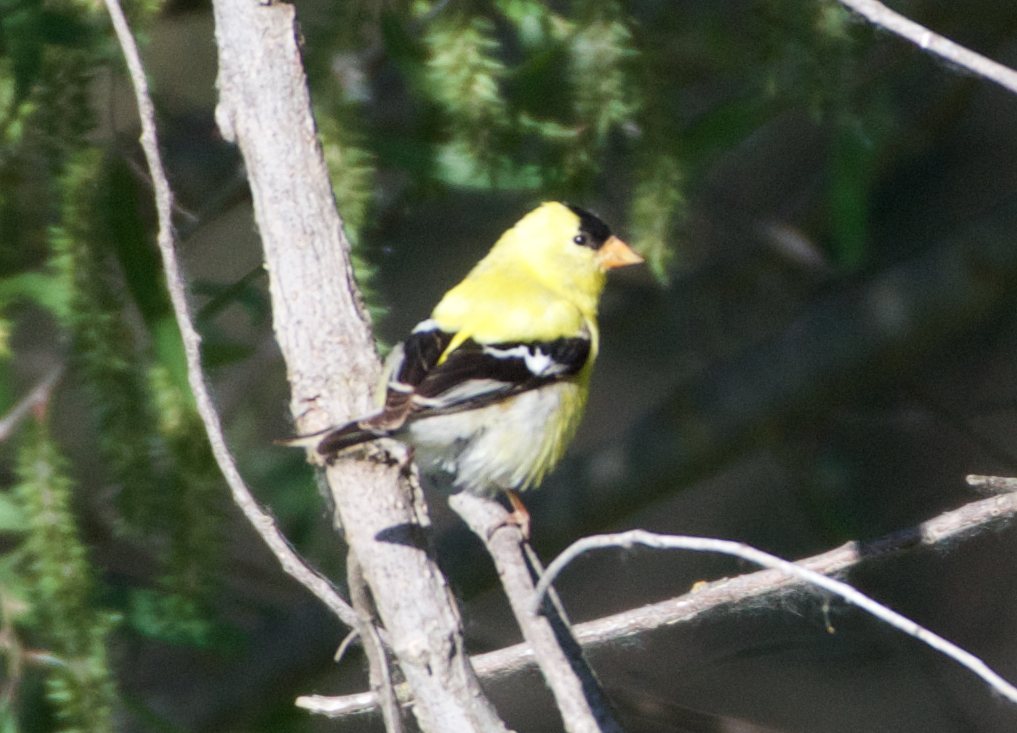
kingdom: Animalia
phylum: Chordata
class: Aves
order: Passeriformes
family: Fringillidae
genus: Spinus
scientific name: Spinus tristis
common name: American goldfinch
